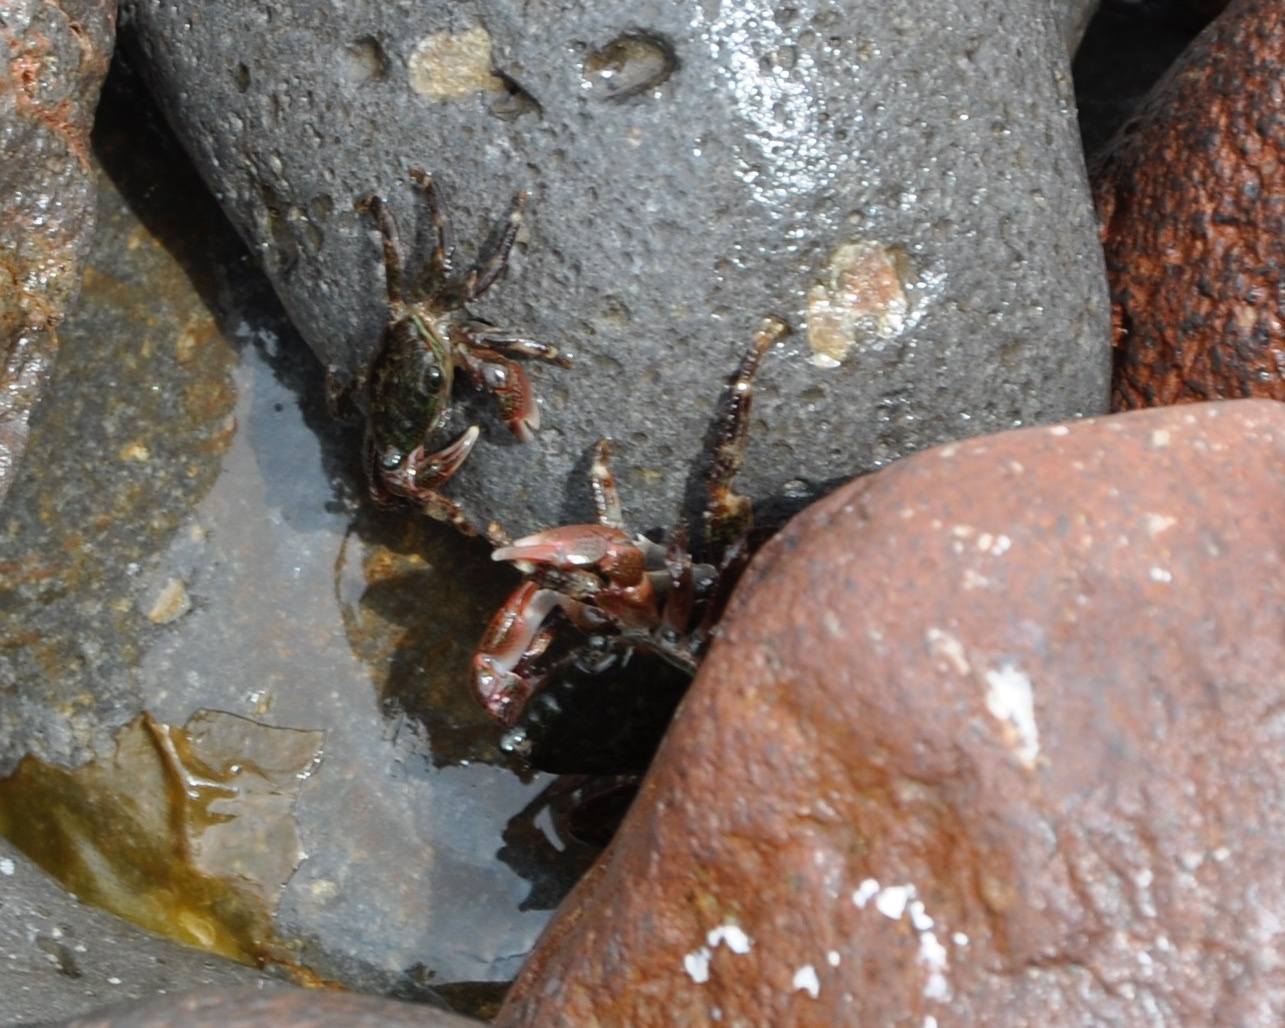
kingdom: Animalia
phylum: Arthropoda
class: Malacostraca
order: Decapoda
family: Grapsidae
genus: Pachygrapsus
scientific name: Pachygrapsus crassipes
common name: Striped shore crab
